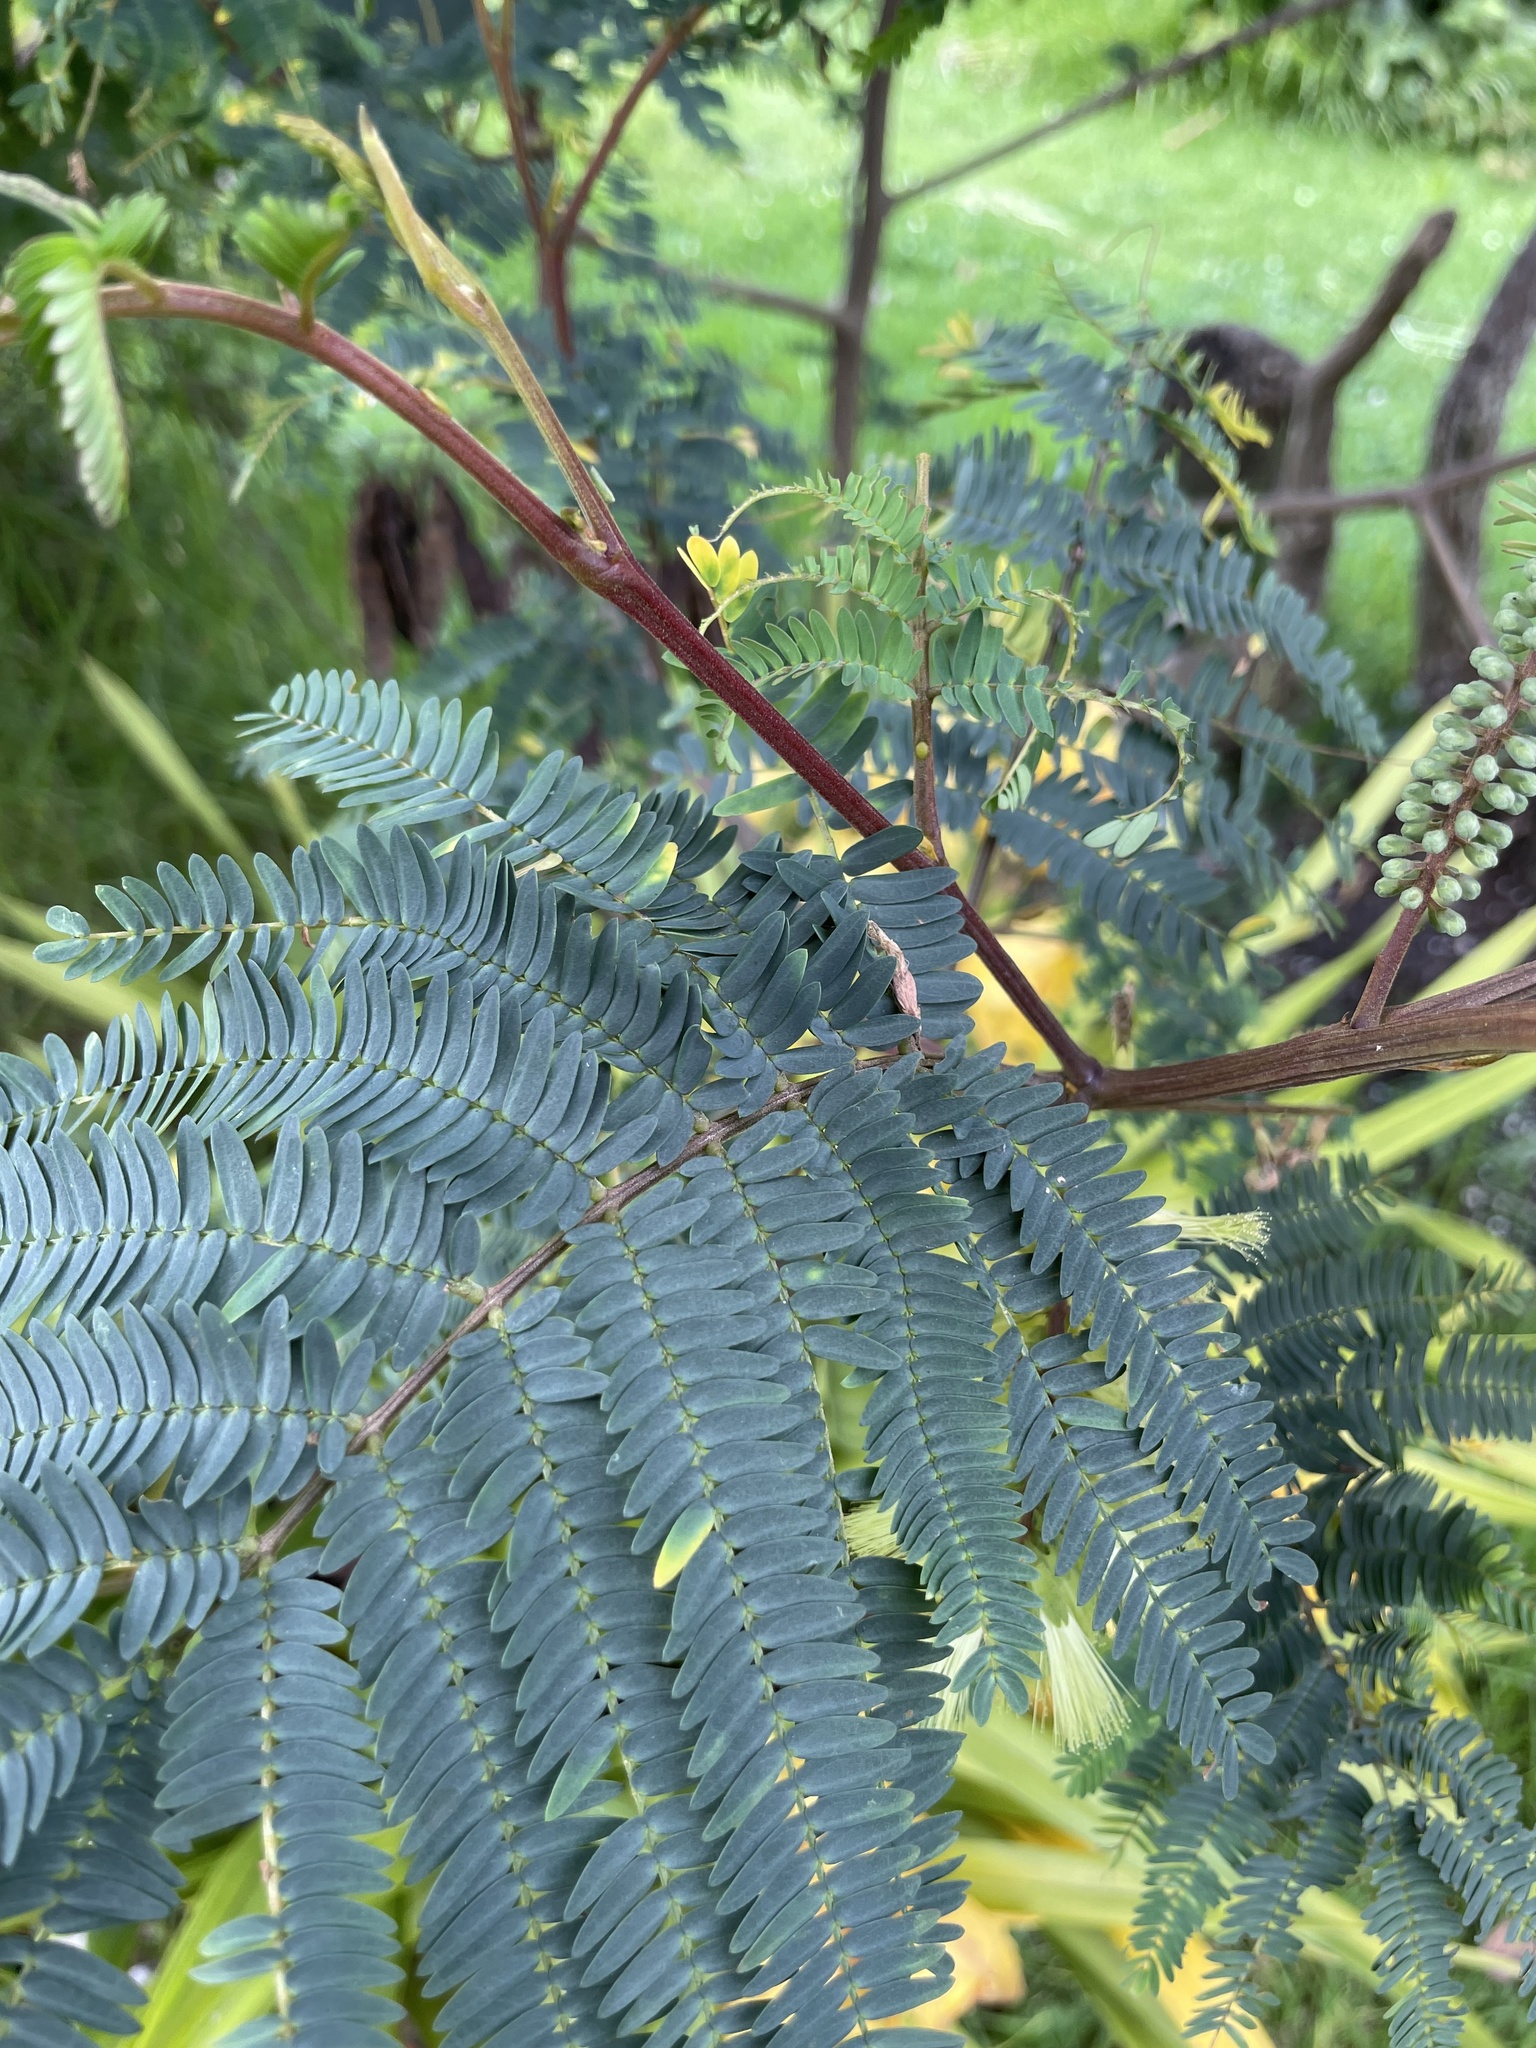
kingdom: Plantae
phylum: Tracheophyta
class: Magnoliopsida
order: Fabales
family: Fabaceae
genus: Paraserianthes
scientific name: Paraserianthes lophantha
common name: Plume albizia
